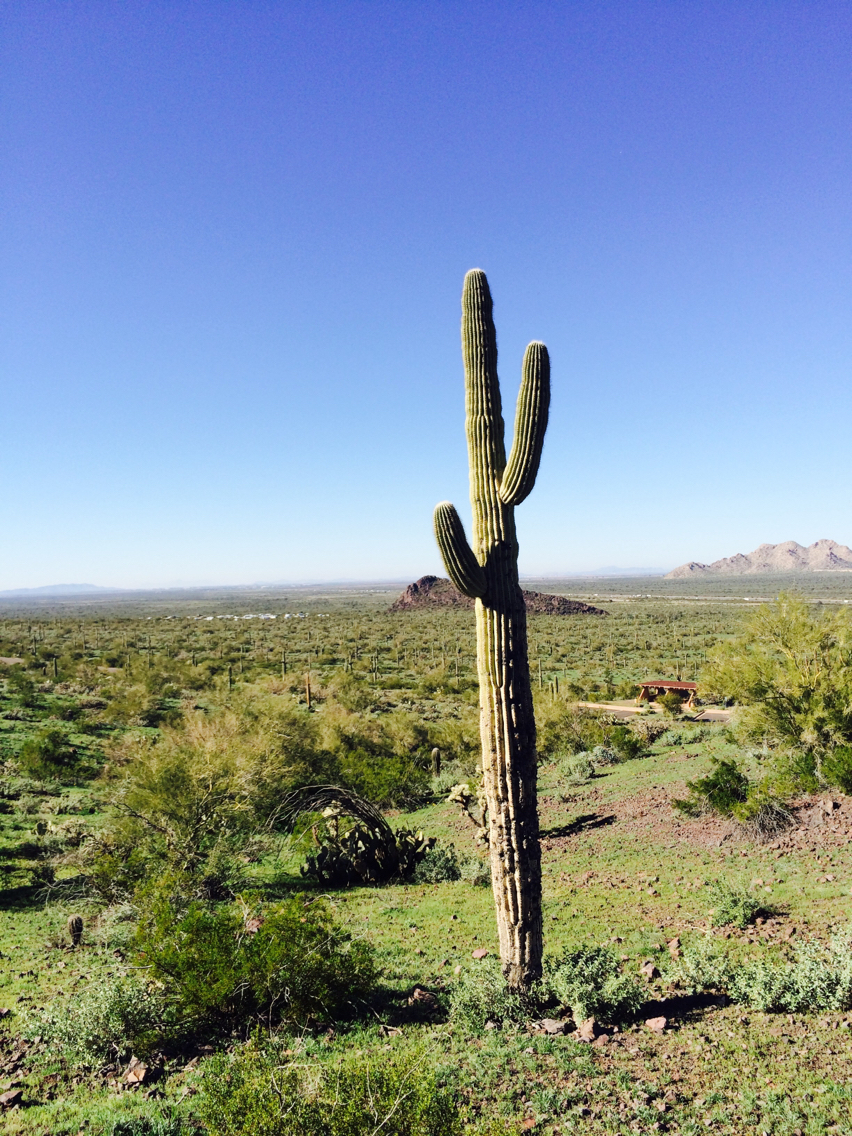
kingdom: Plantae
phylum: Tracheophyta
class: Magnoliopsida
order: Caryophyllales
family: Cactaceae
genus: Carnegiea
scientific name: Carnegiea gigantea
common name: Saguaro
